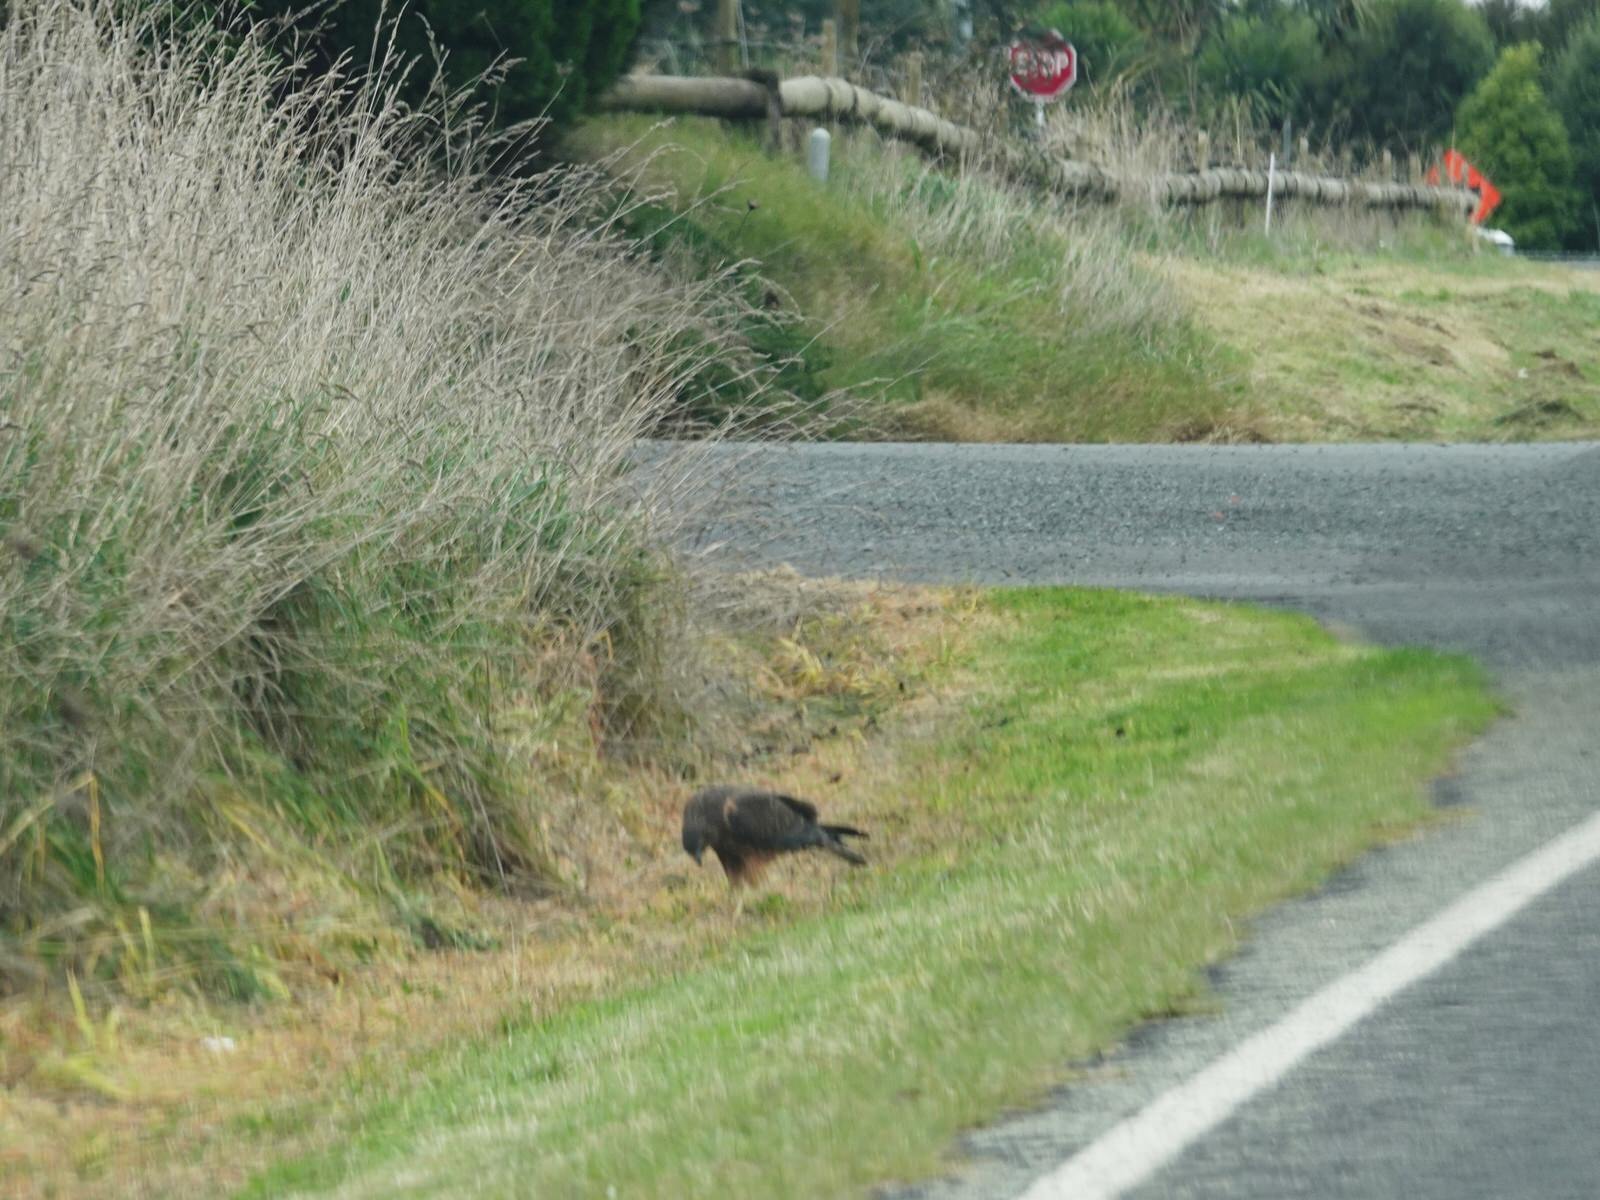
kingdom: Animalia
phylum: Chordata
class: Aves
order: Accipitriformes
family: Accipitridae
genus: Circus
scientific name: Circus approximans
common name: Swamp harrier
